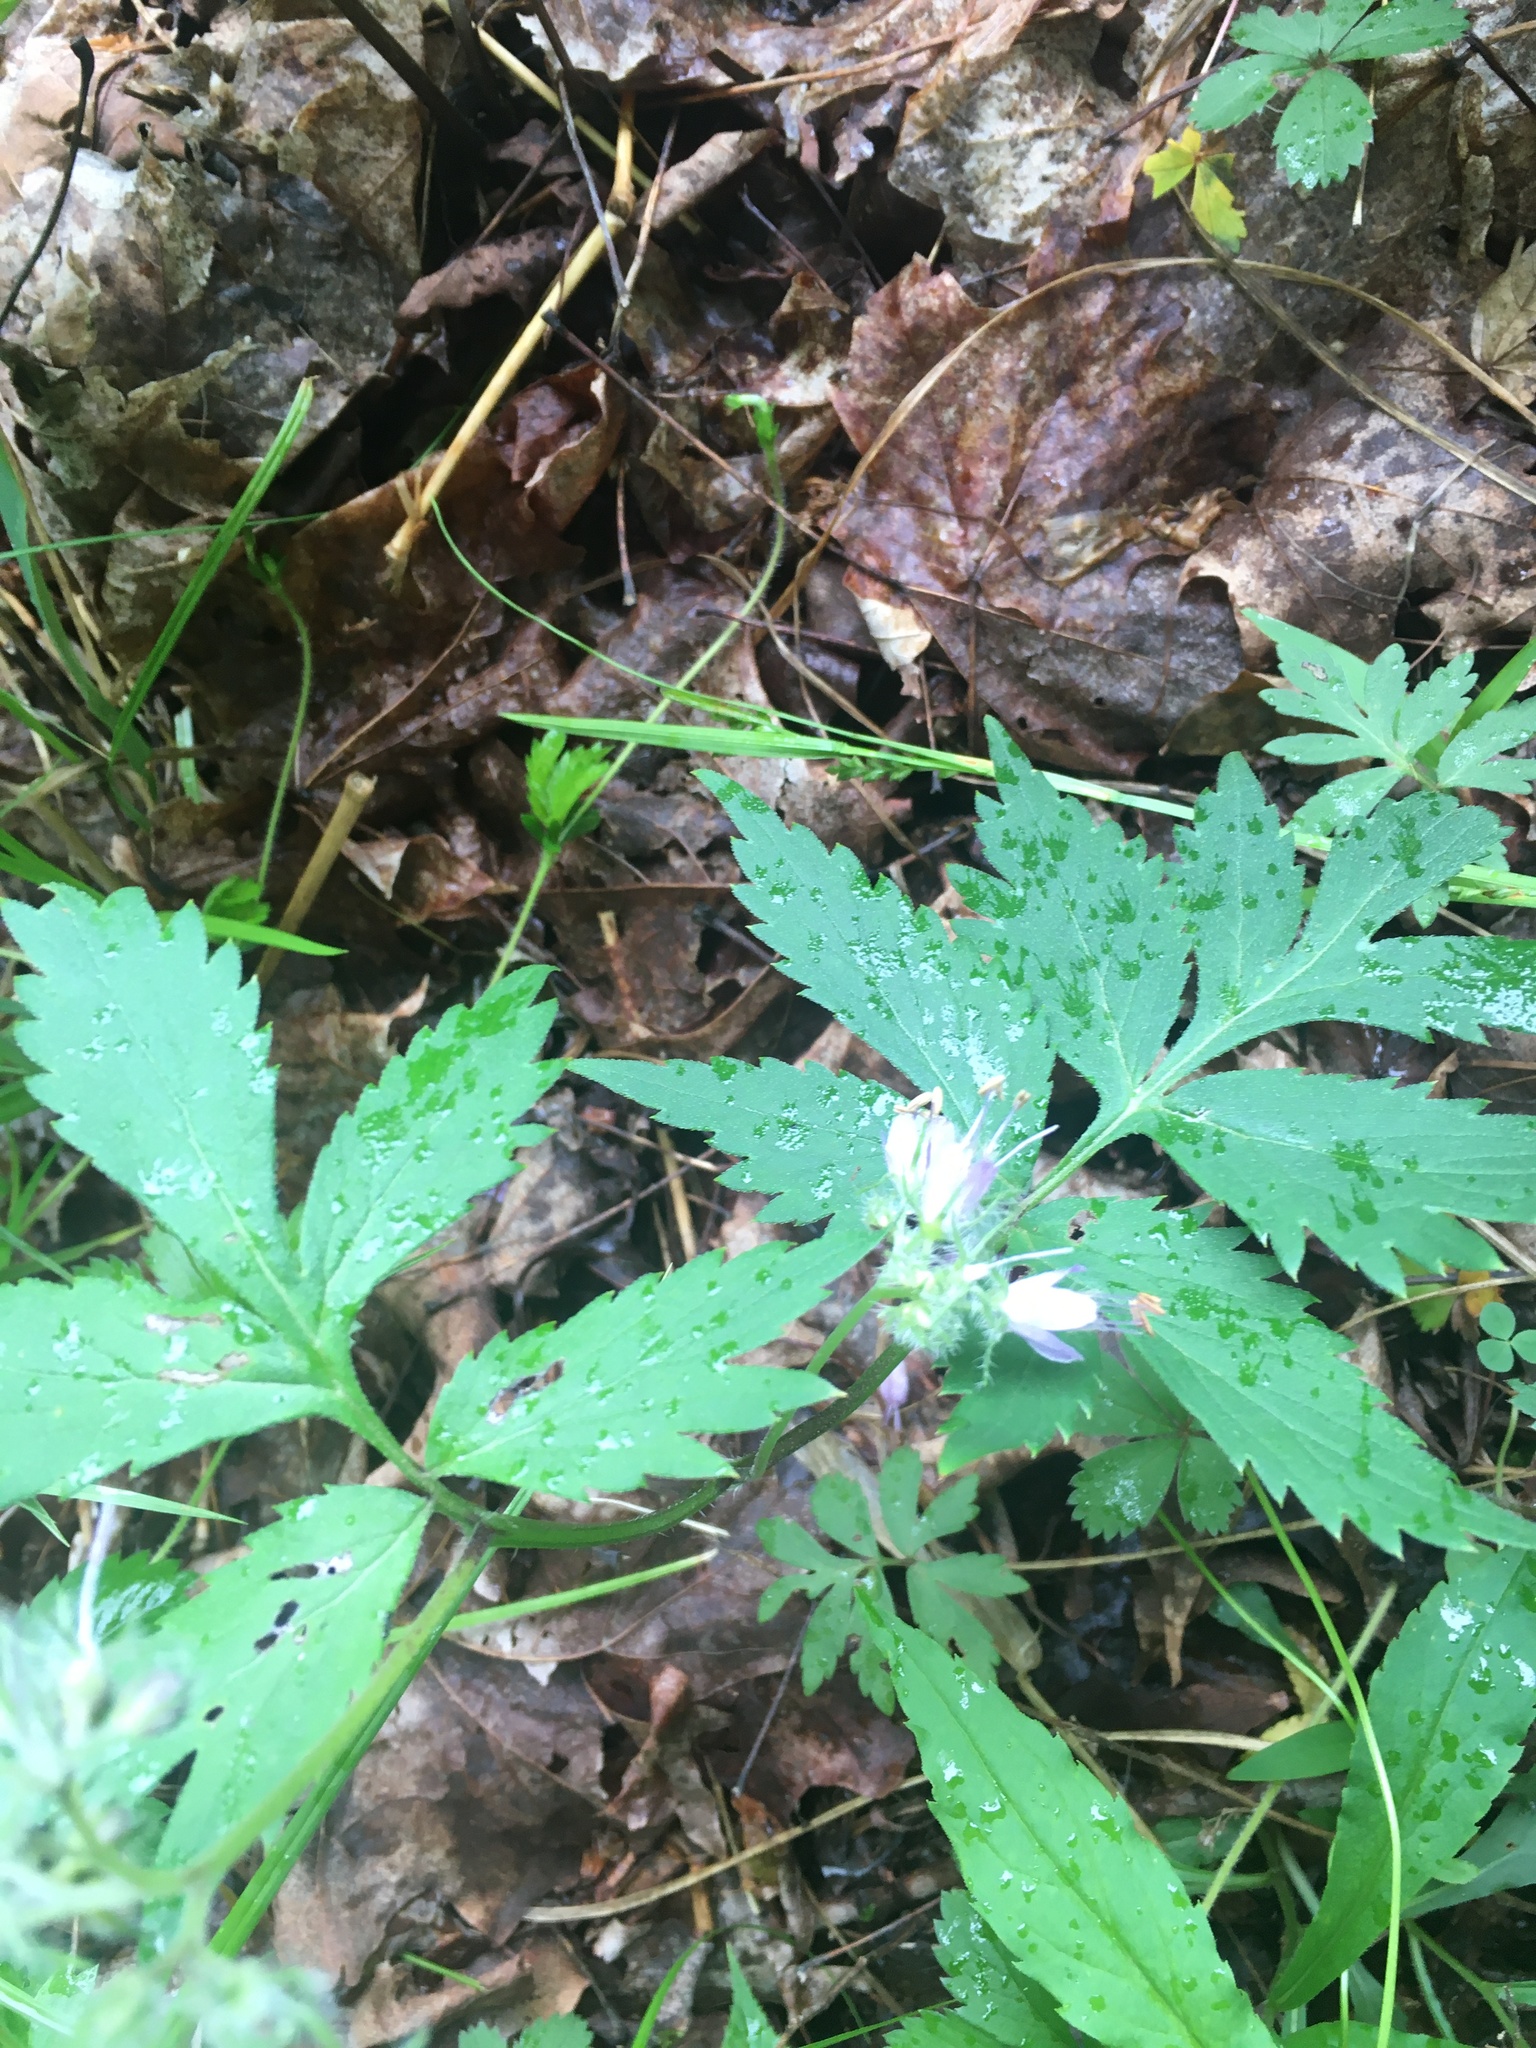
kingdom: Plantae
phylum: Tracheophyta
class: Magnoliopsida
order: Boraginales
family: Hydrophyllaceae
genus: Hydrophyllum
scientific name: Hydrophyllum virginianum
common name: Virginia waterleaf
